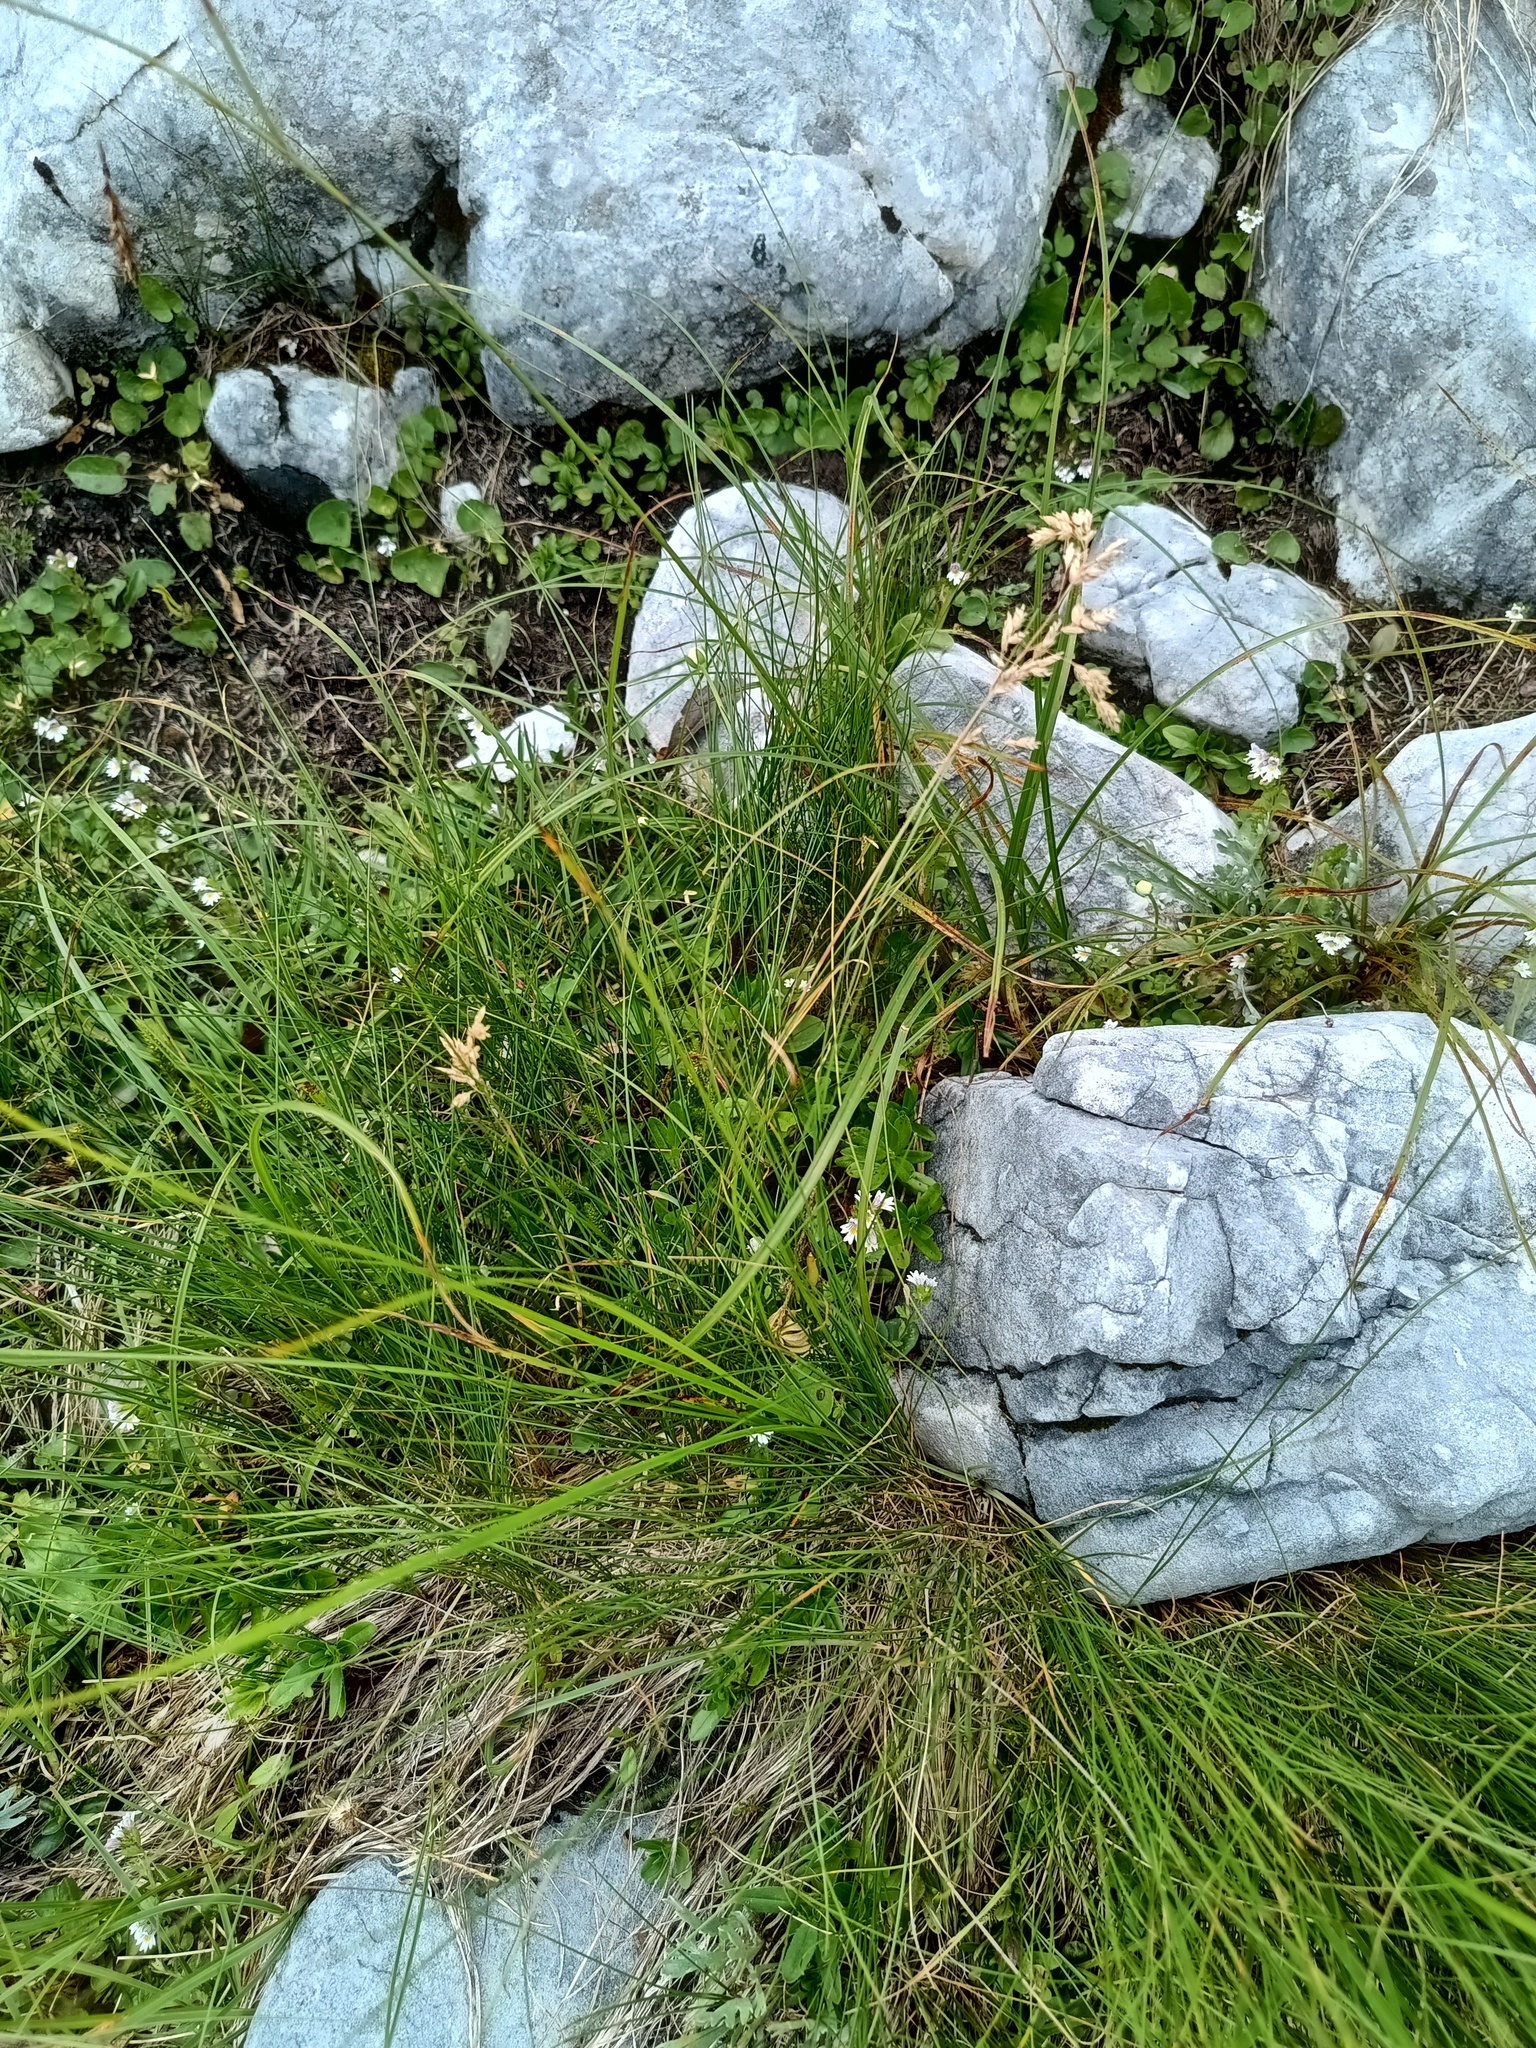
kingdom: Plantae
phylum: Tracheophyta
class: Liliopsida
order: Poales
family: Poaceae
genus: Poa
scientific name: Poa alpina
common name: Alpine bluegrass
